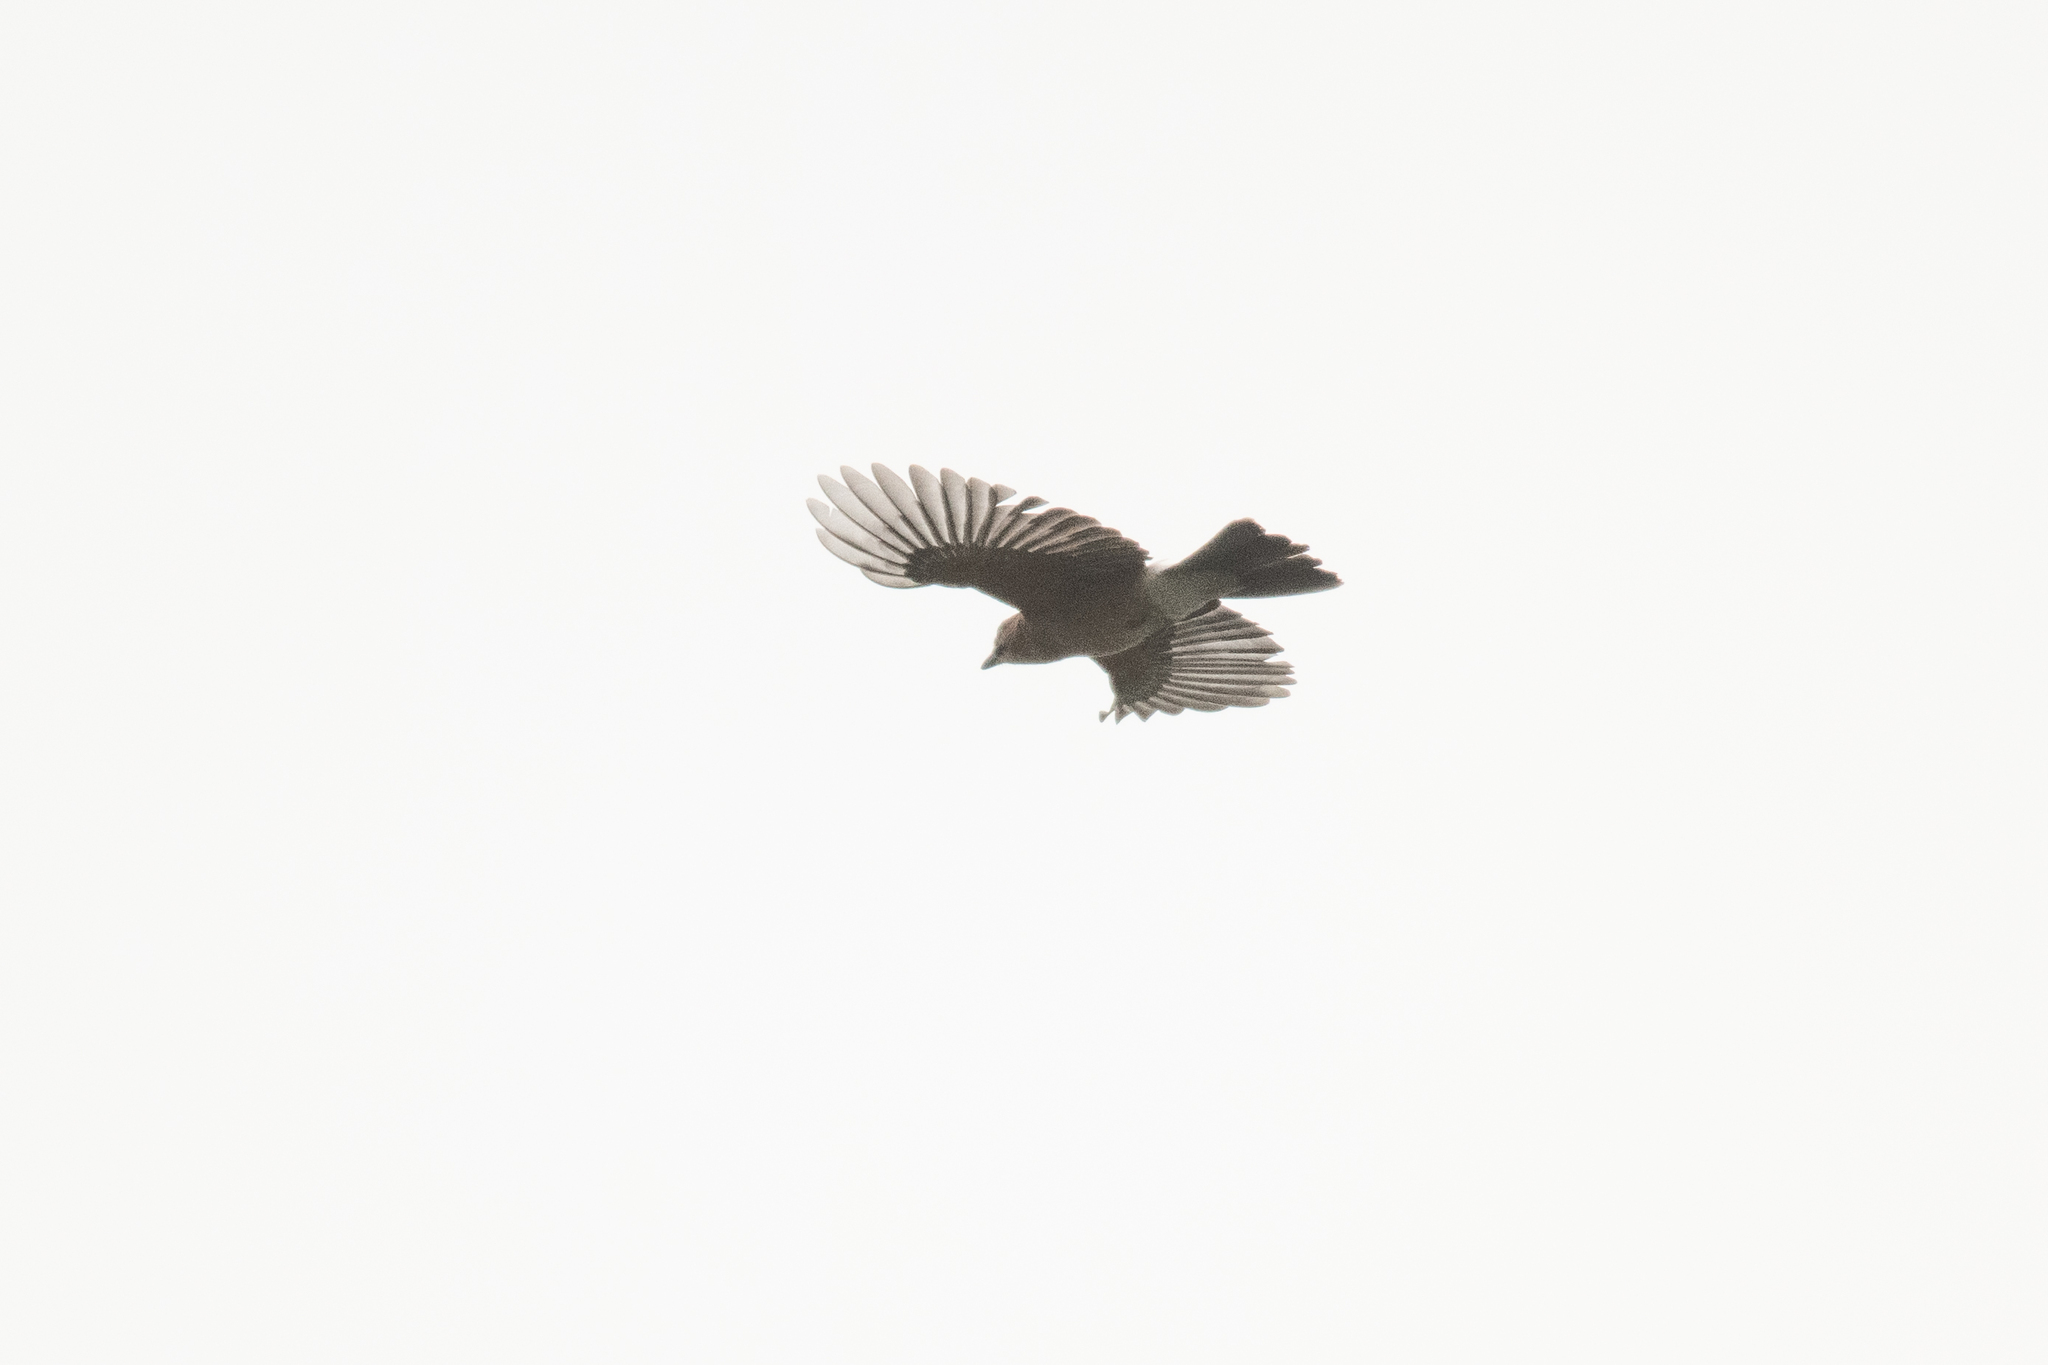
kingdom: Animalia
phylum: Chordata
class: Aves
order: Passeriformes
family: Corvidae
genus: Garrulus
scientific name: Garrulus glandarius
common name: Eurasian jay
